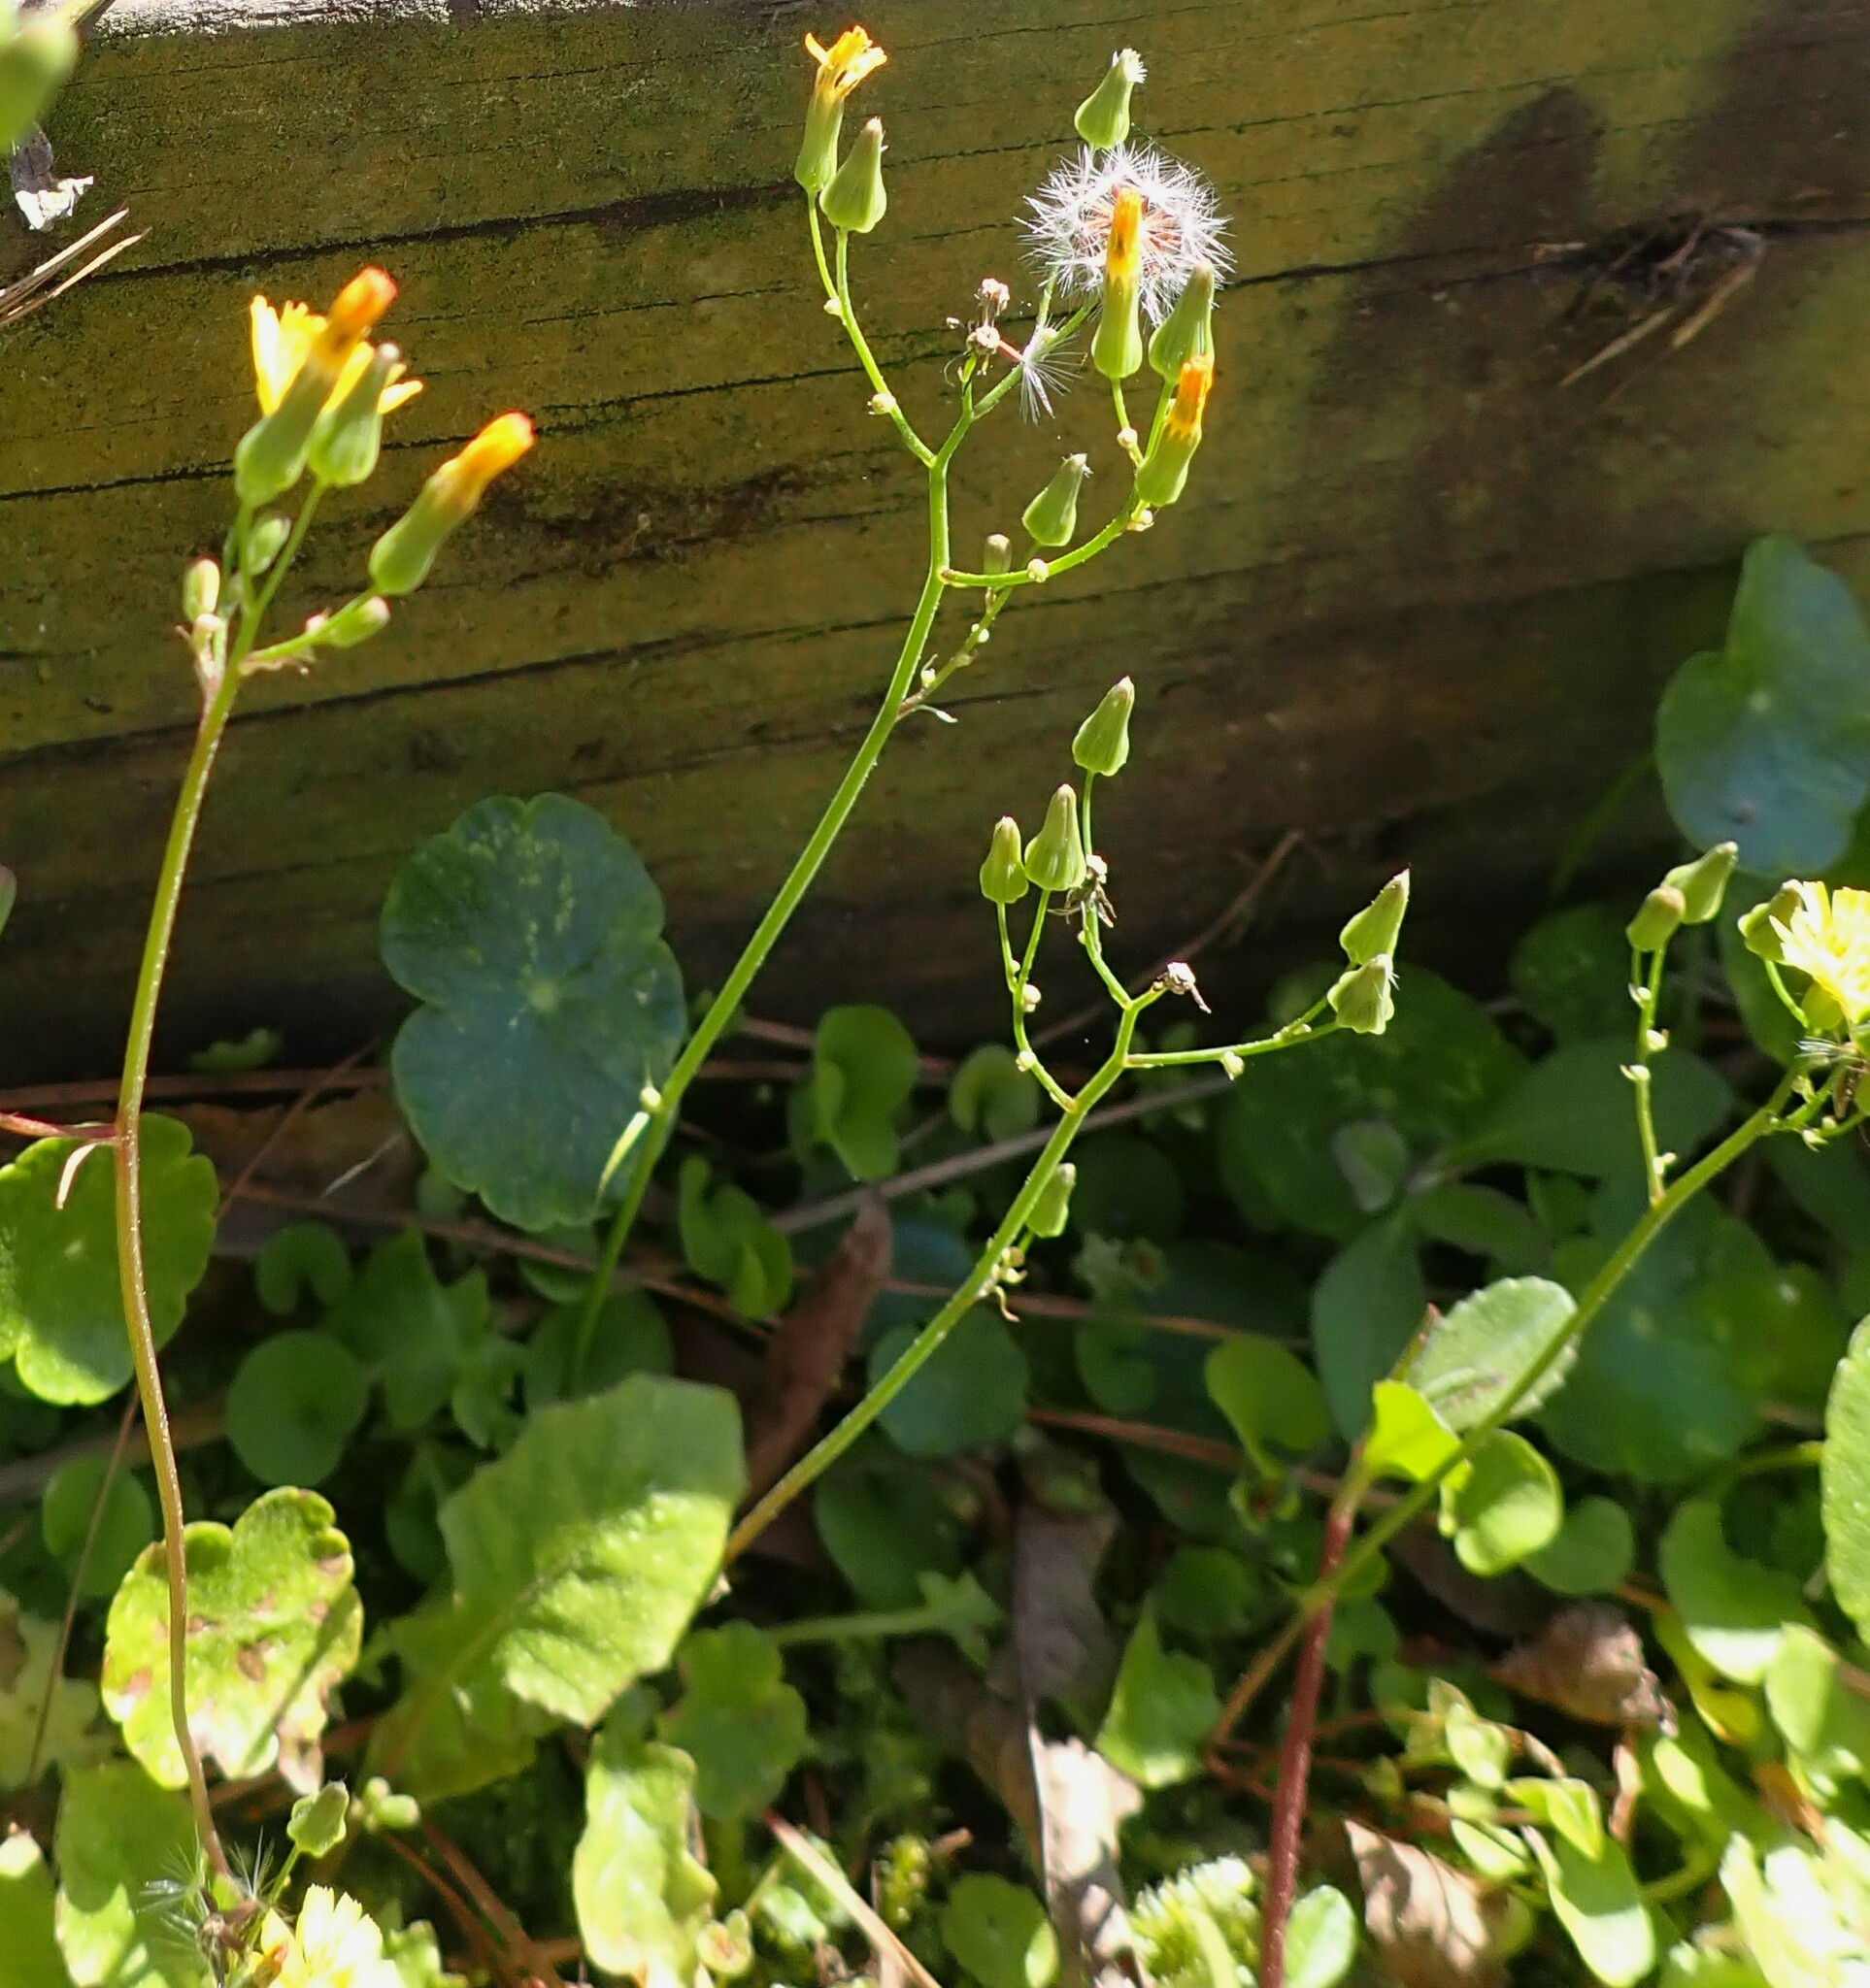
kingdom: Plantae
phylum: Tracheophyta
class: Magnoliopsida
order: Asterales
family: Asteraceae
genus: Youngia
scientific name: Youngia japonica
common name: Oriental false hawksbeard
